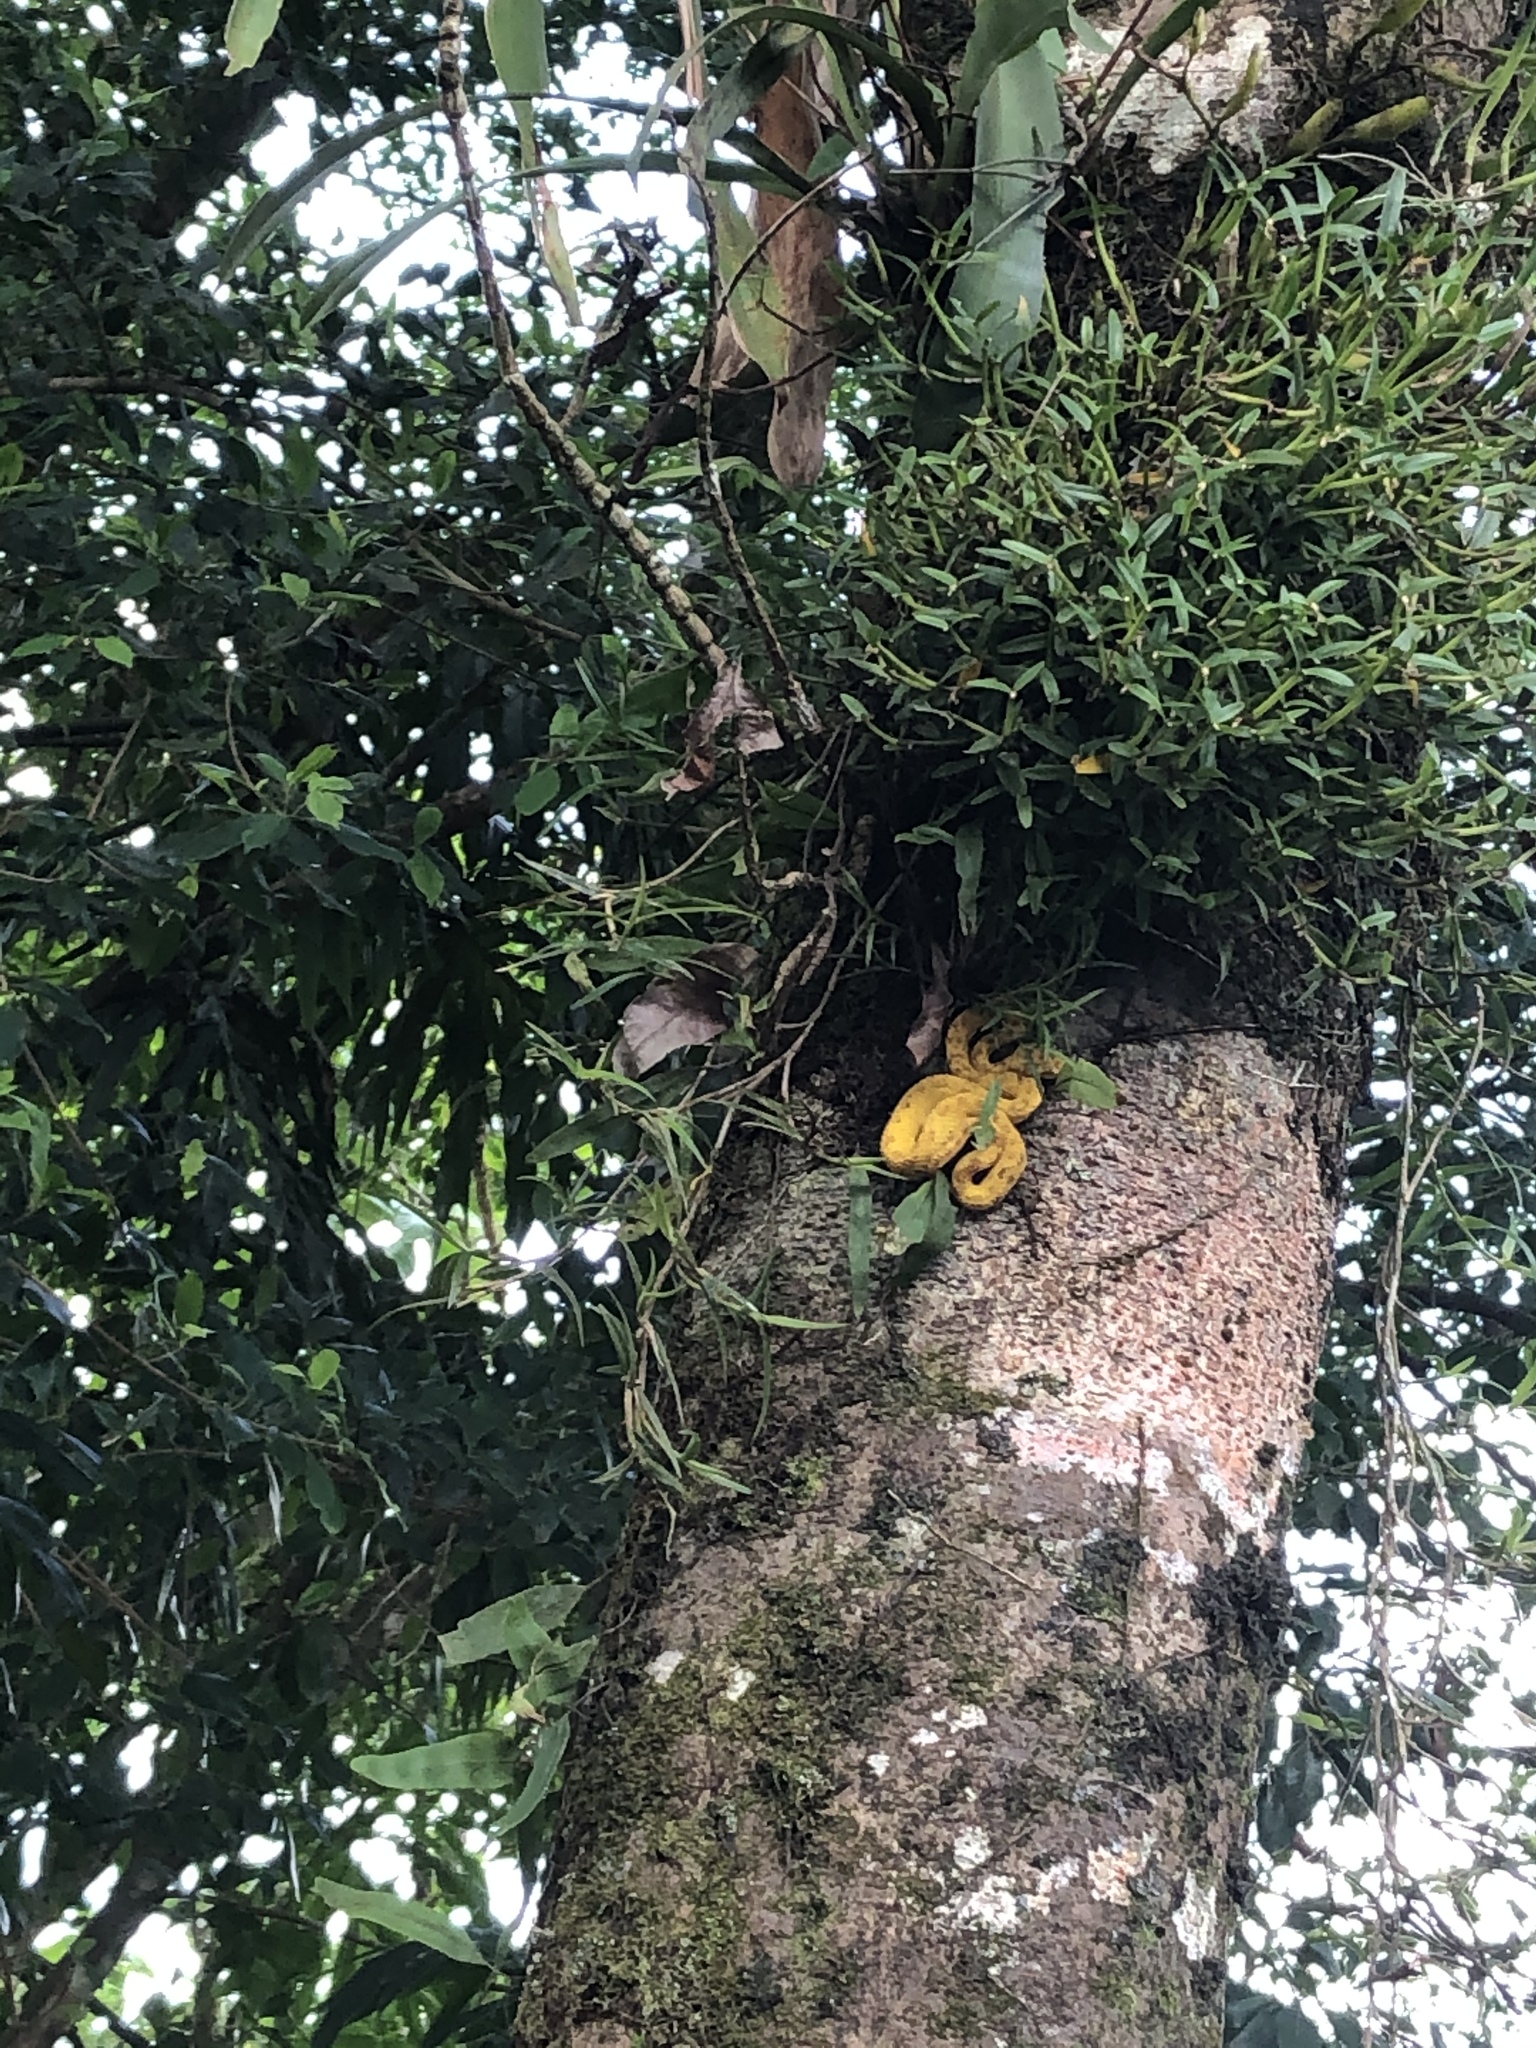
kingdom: Animalia
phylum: Chordata
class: Squamata
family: Viperidae
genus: Bothriechis
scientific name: Bothriechis schlegelii
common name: Eyelash viper
